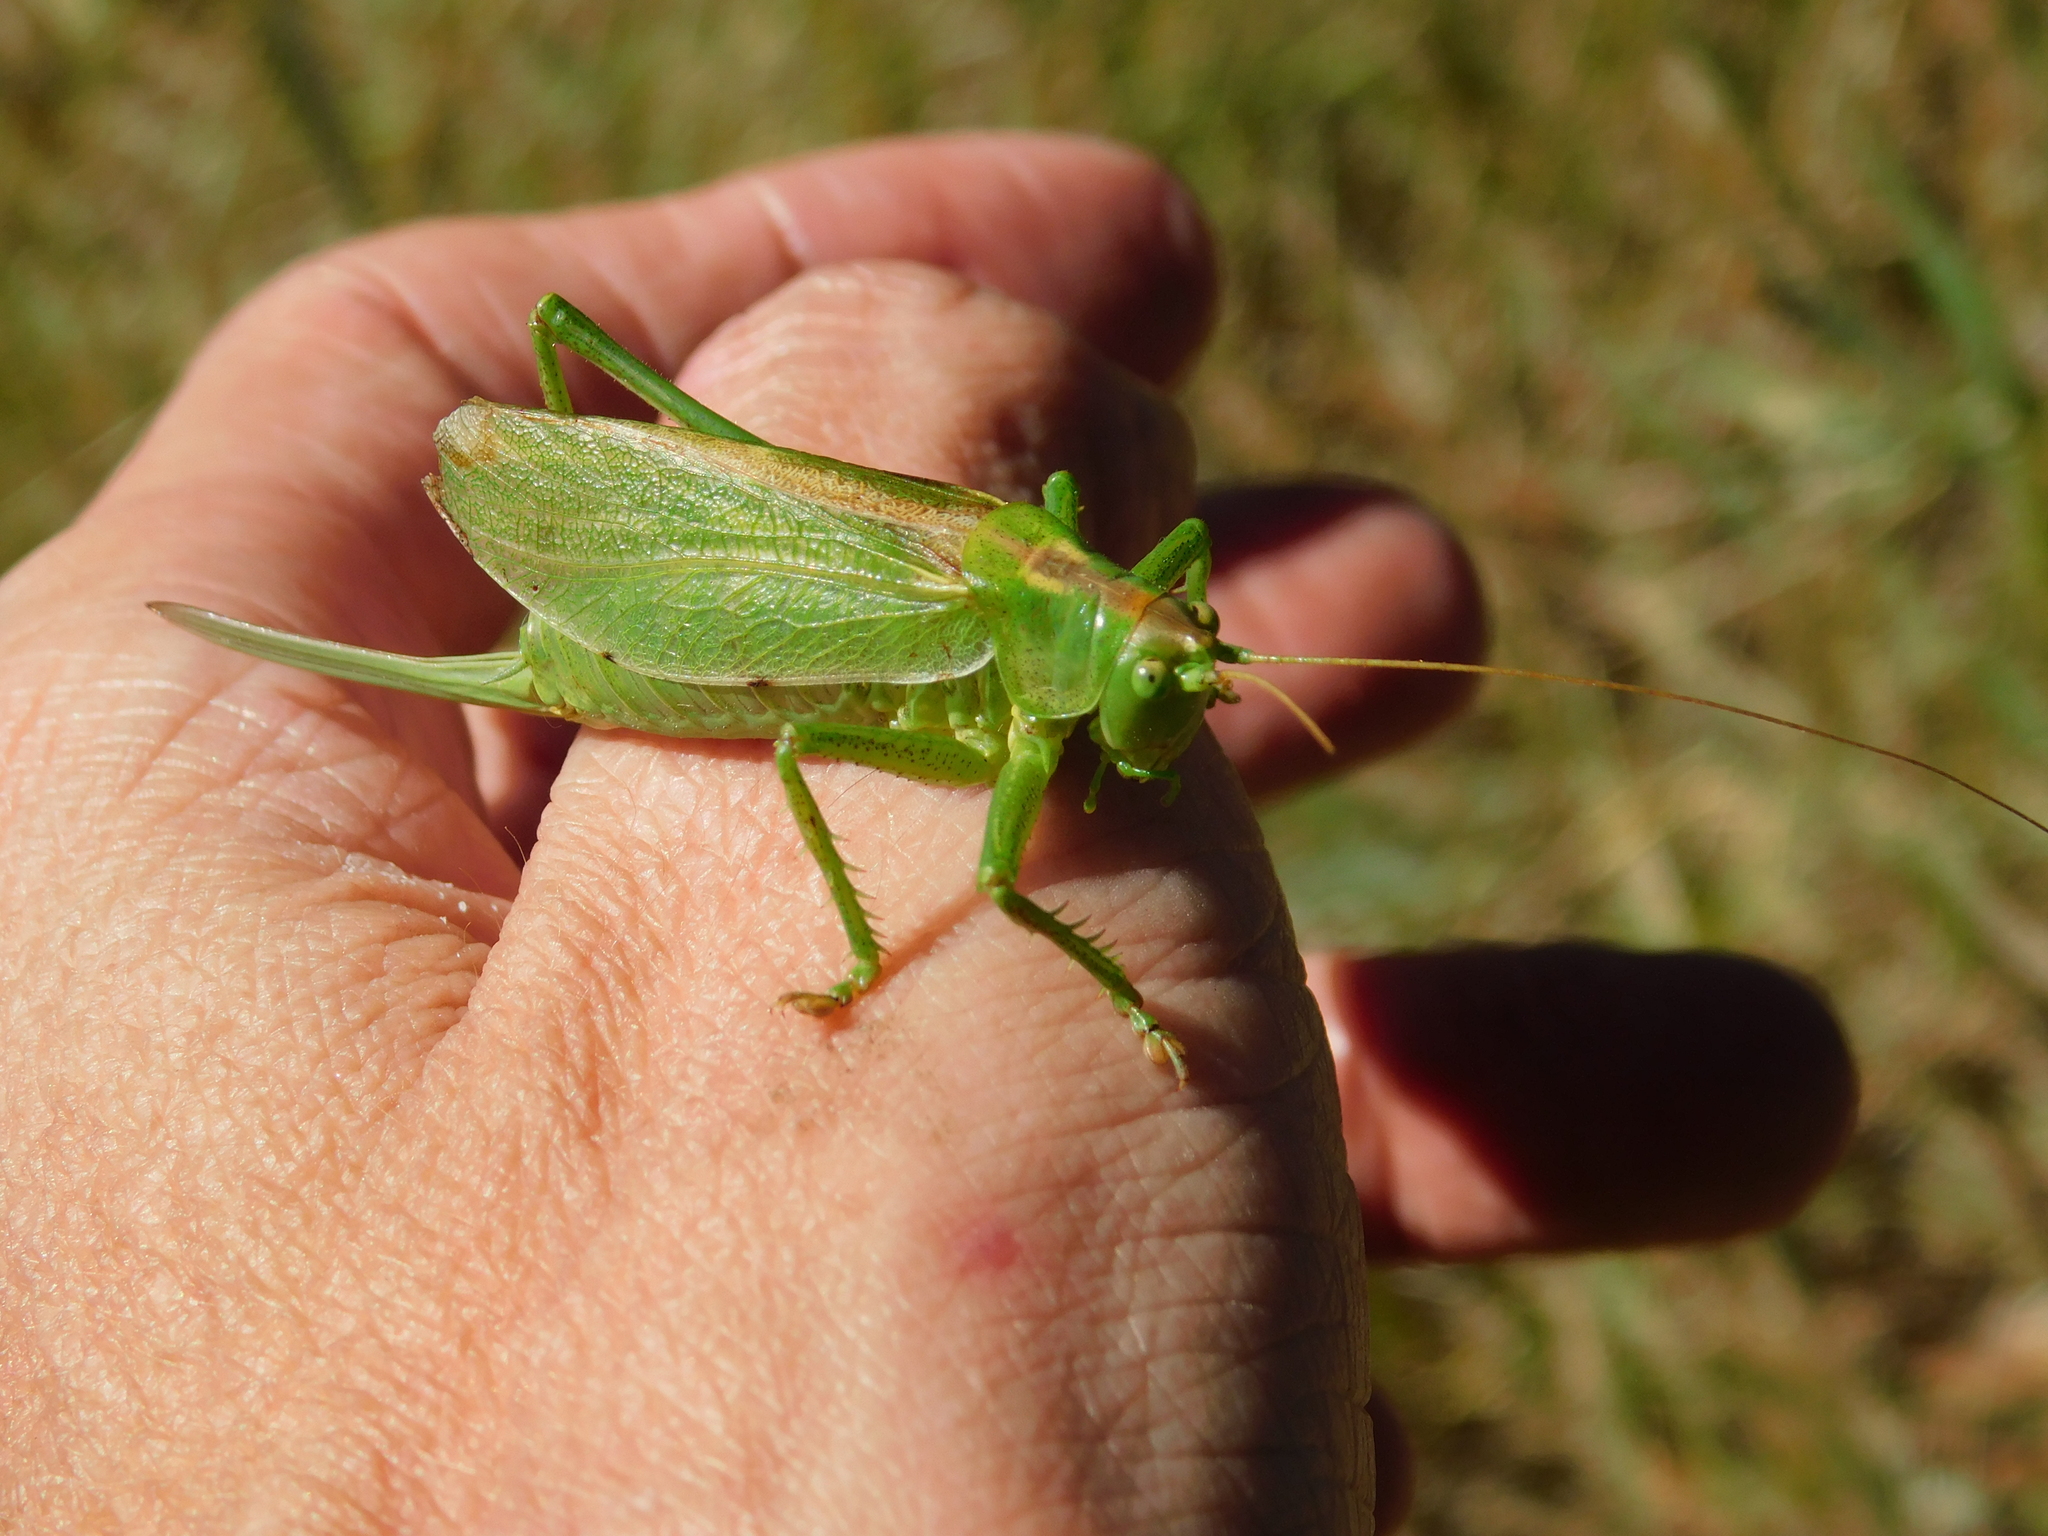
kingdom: Animalia
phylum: Arthropoda
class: Insecta
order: Orthoptera
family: Tettigoniidae
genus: Tettigonia
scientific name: Tettigonia cantans
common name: Upland green bush-cricket
